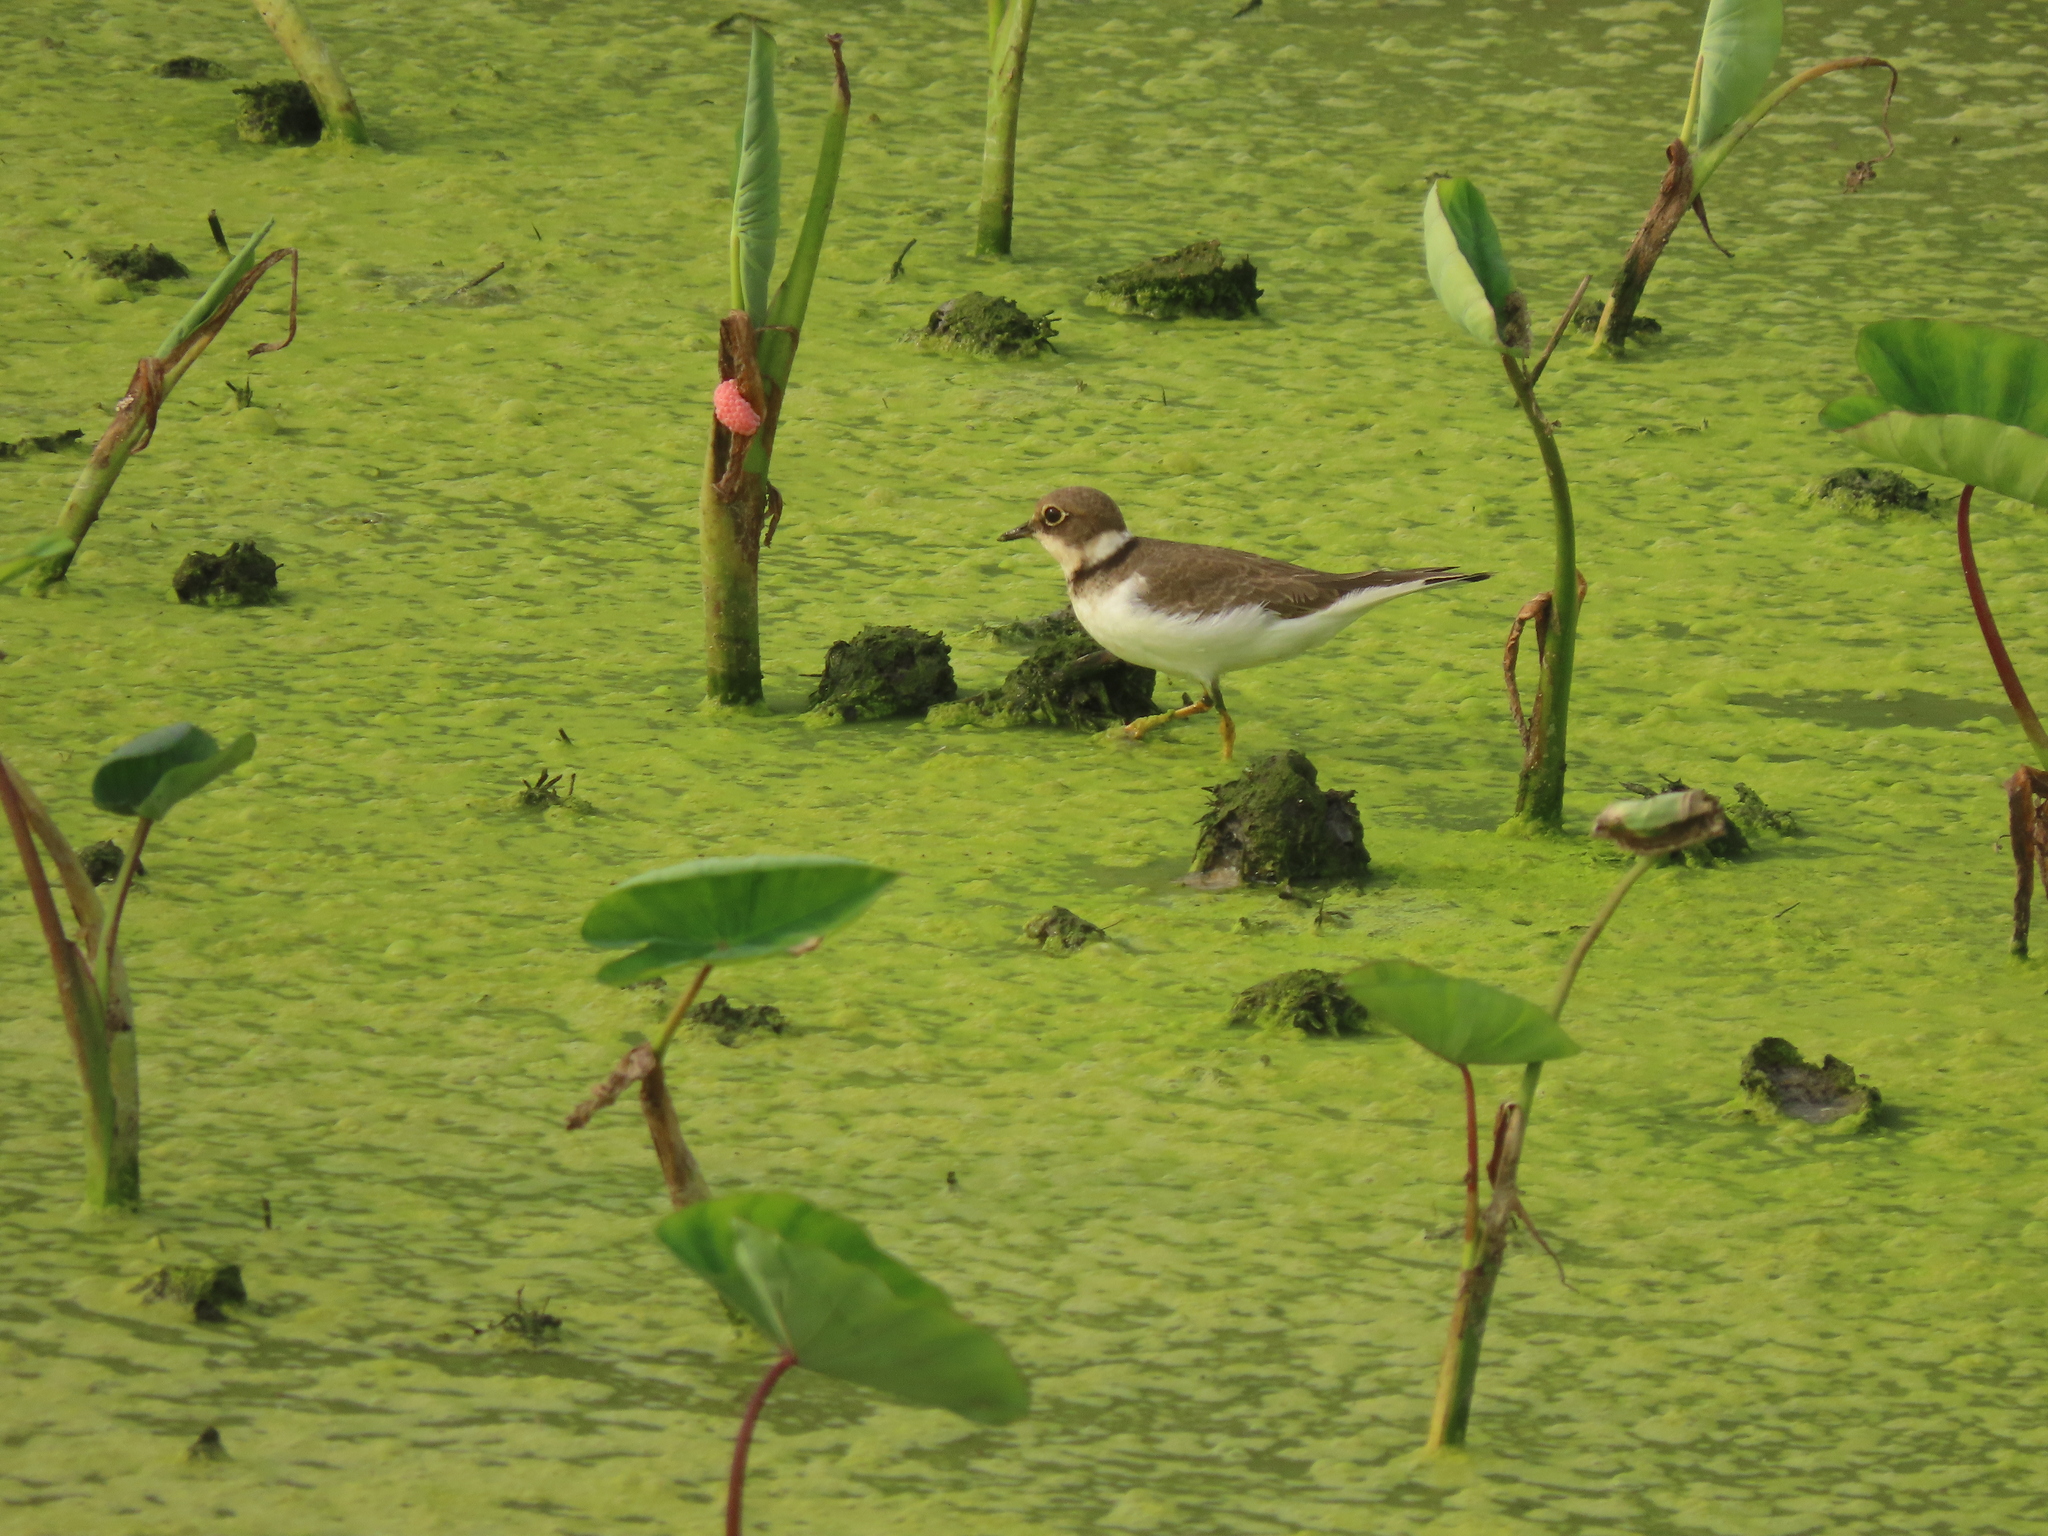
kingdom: Animalia
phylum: Chordata
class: Aves
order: Charadriiformes
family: Charadriidae
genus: Charadrius
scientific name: Charadrius dubius
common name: Little ringed plover
